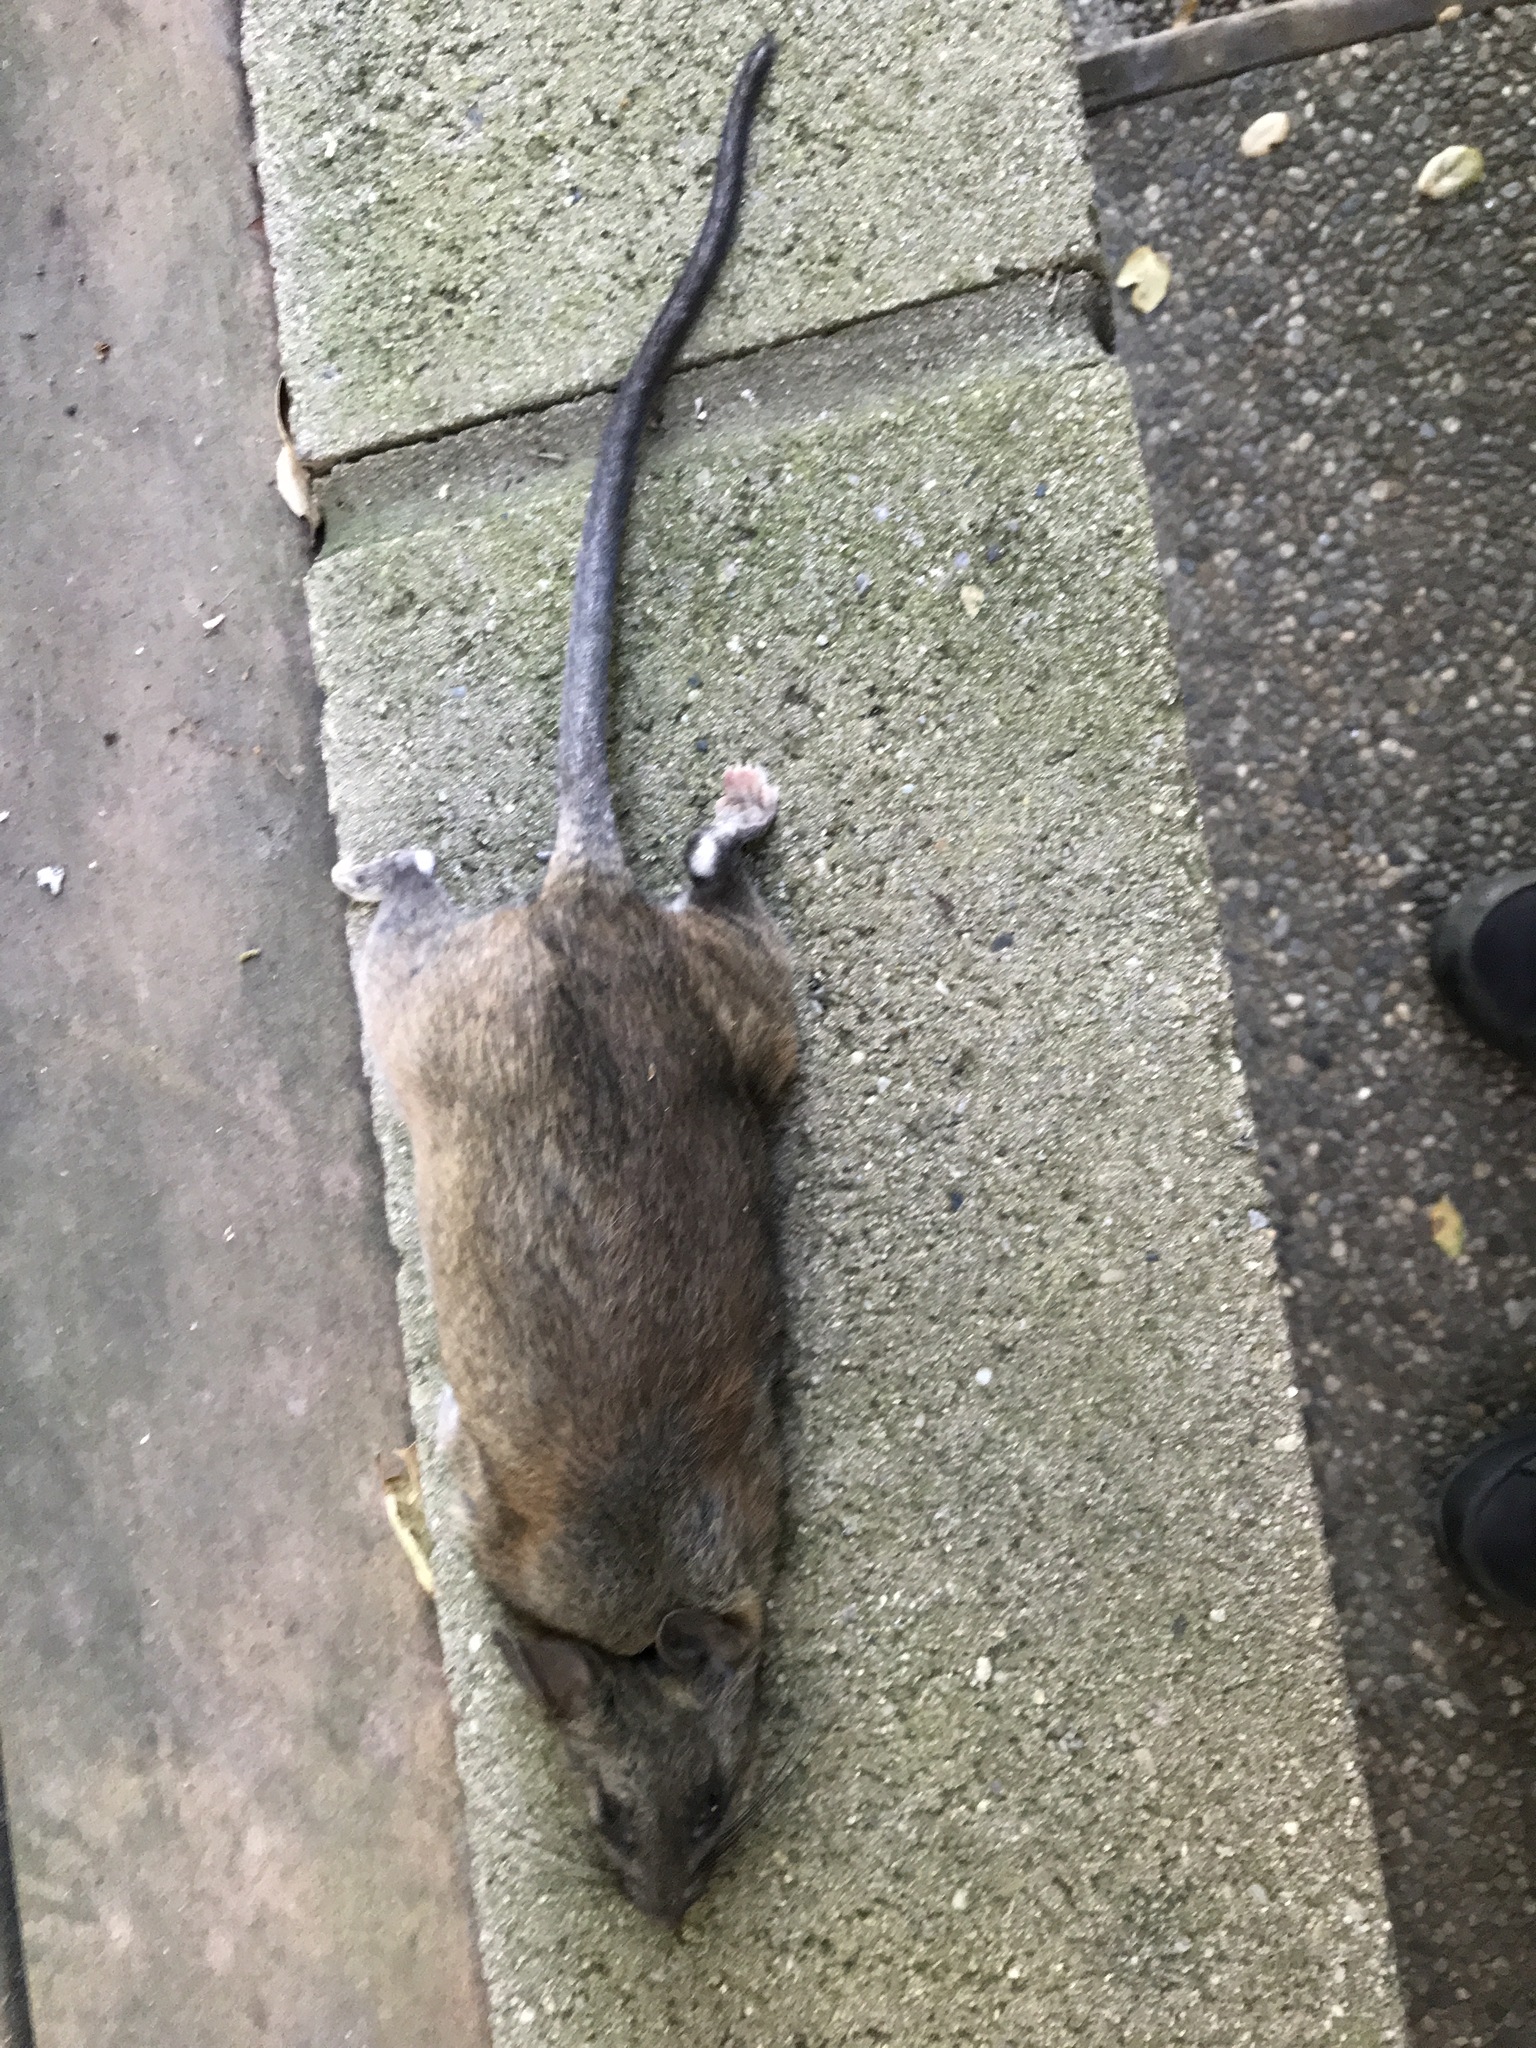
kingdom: Animalia
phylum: Chordata
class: Mammalia
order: Rodentia
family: Cricetidae
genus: Neotoma
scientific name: Neotoma fuscipes
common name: Dusky-footed woodrat
